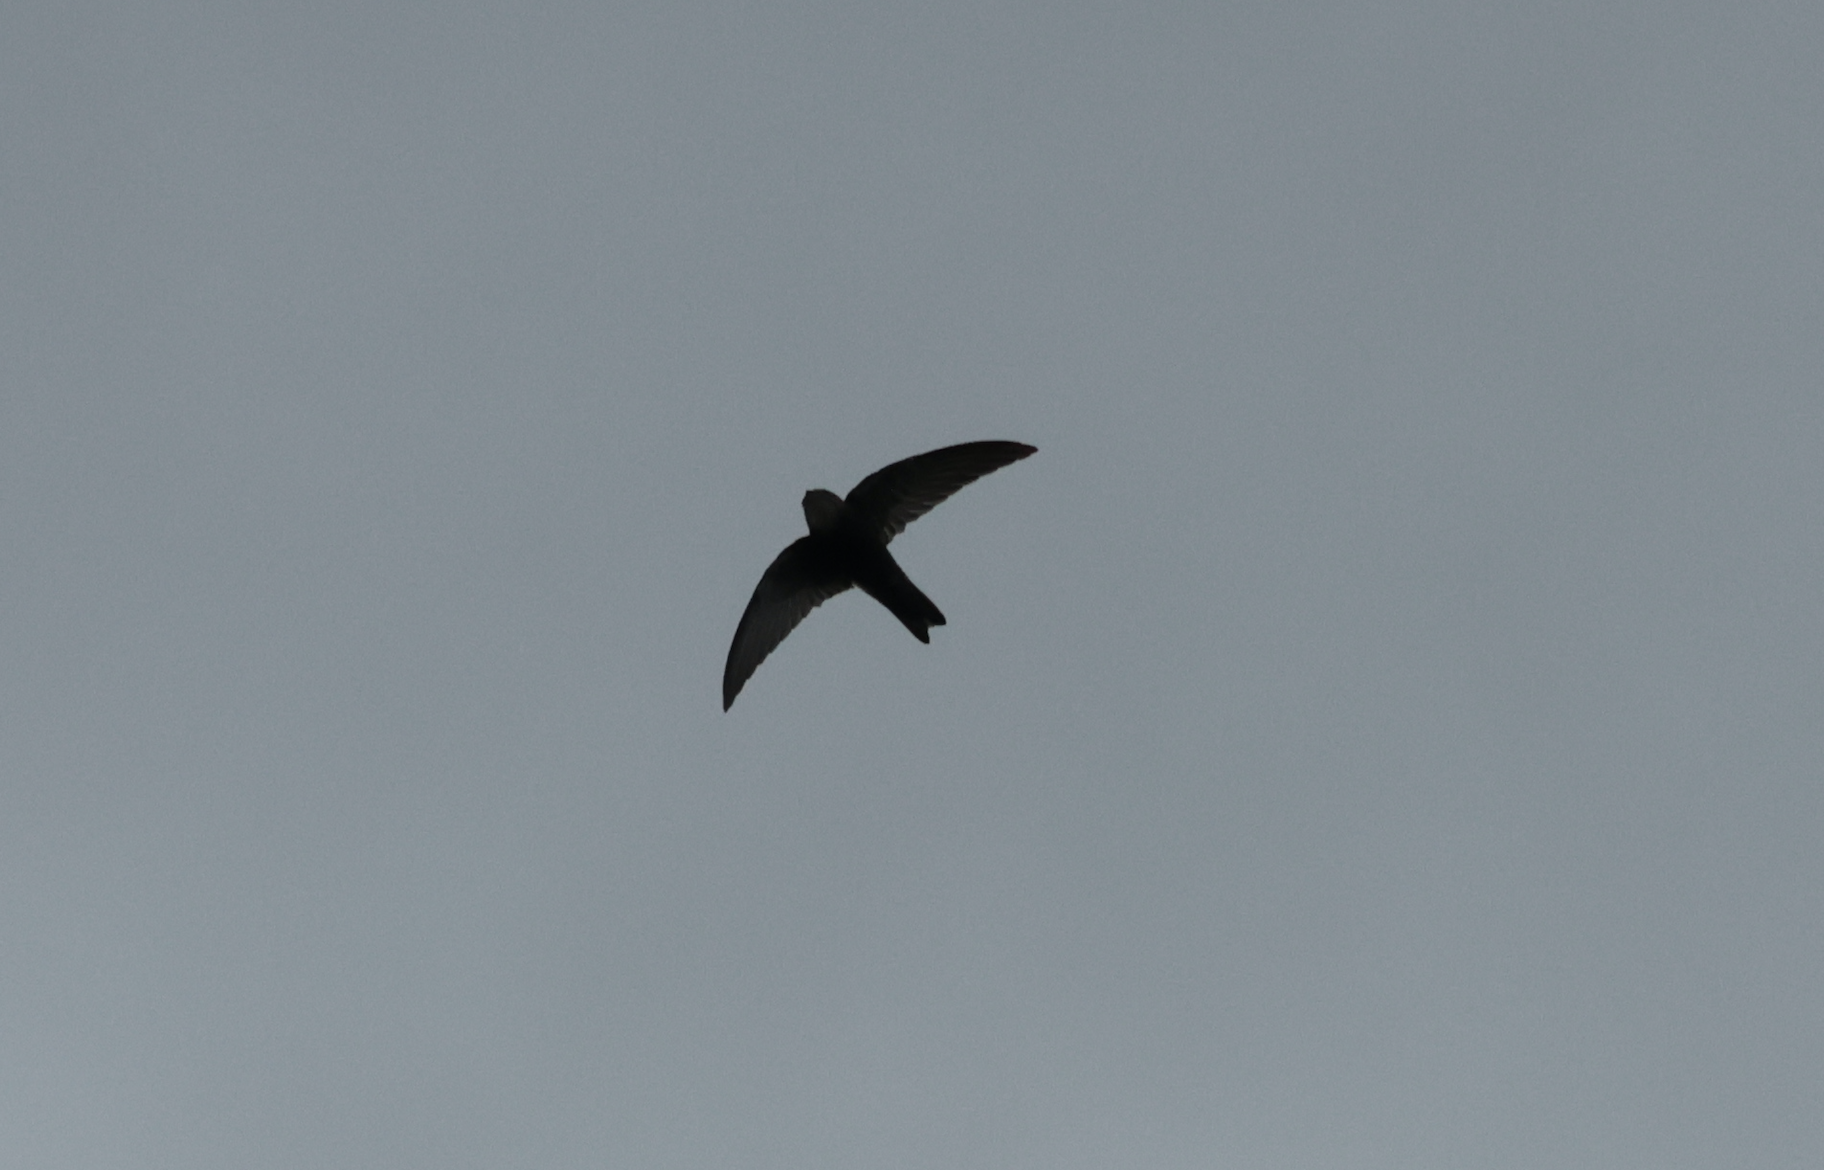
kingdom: Animalia
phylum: Chordata
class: Aves
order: Apodiformes
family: Apodidae
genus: Apus
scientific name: Apus nipalensis
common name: House swift
